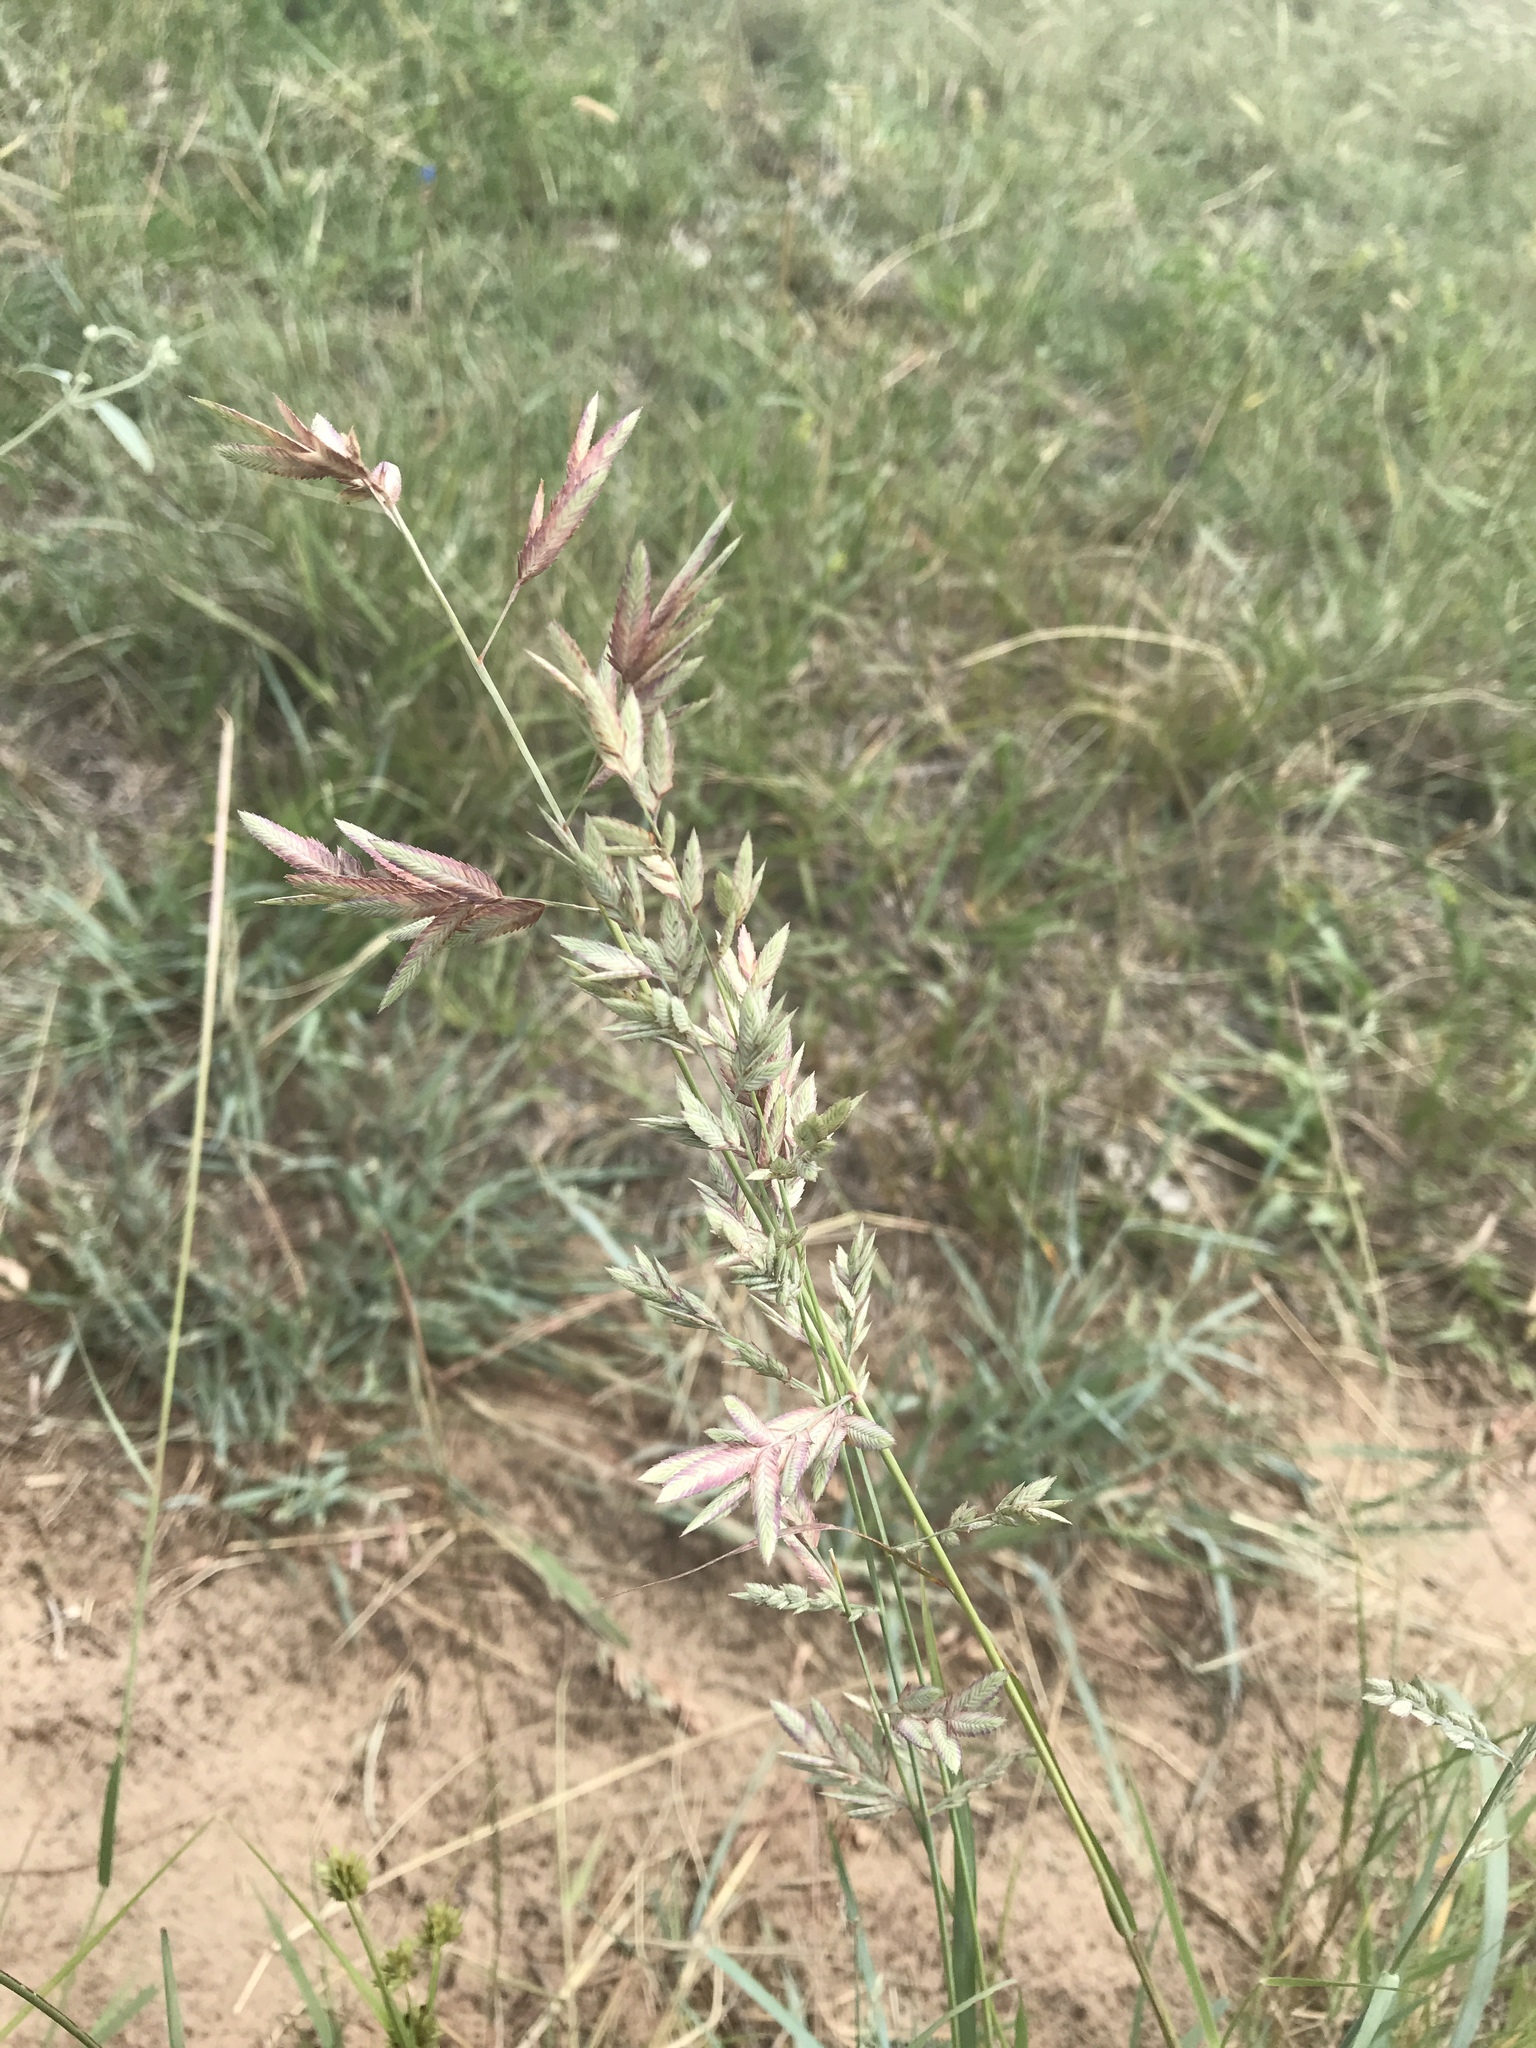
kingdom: Plantae
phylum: Tracheophyta
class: Liliopsida
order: Poales
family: Poaceae
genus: Eragrostis
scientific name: Eragrostis secundiflora
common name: Red love grass
